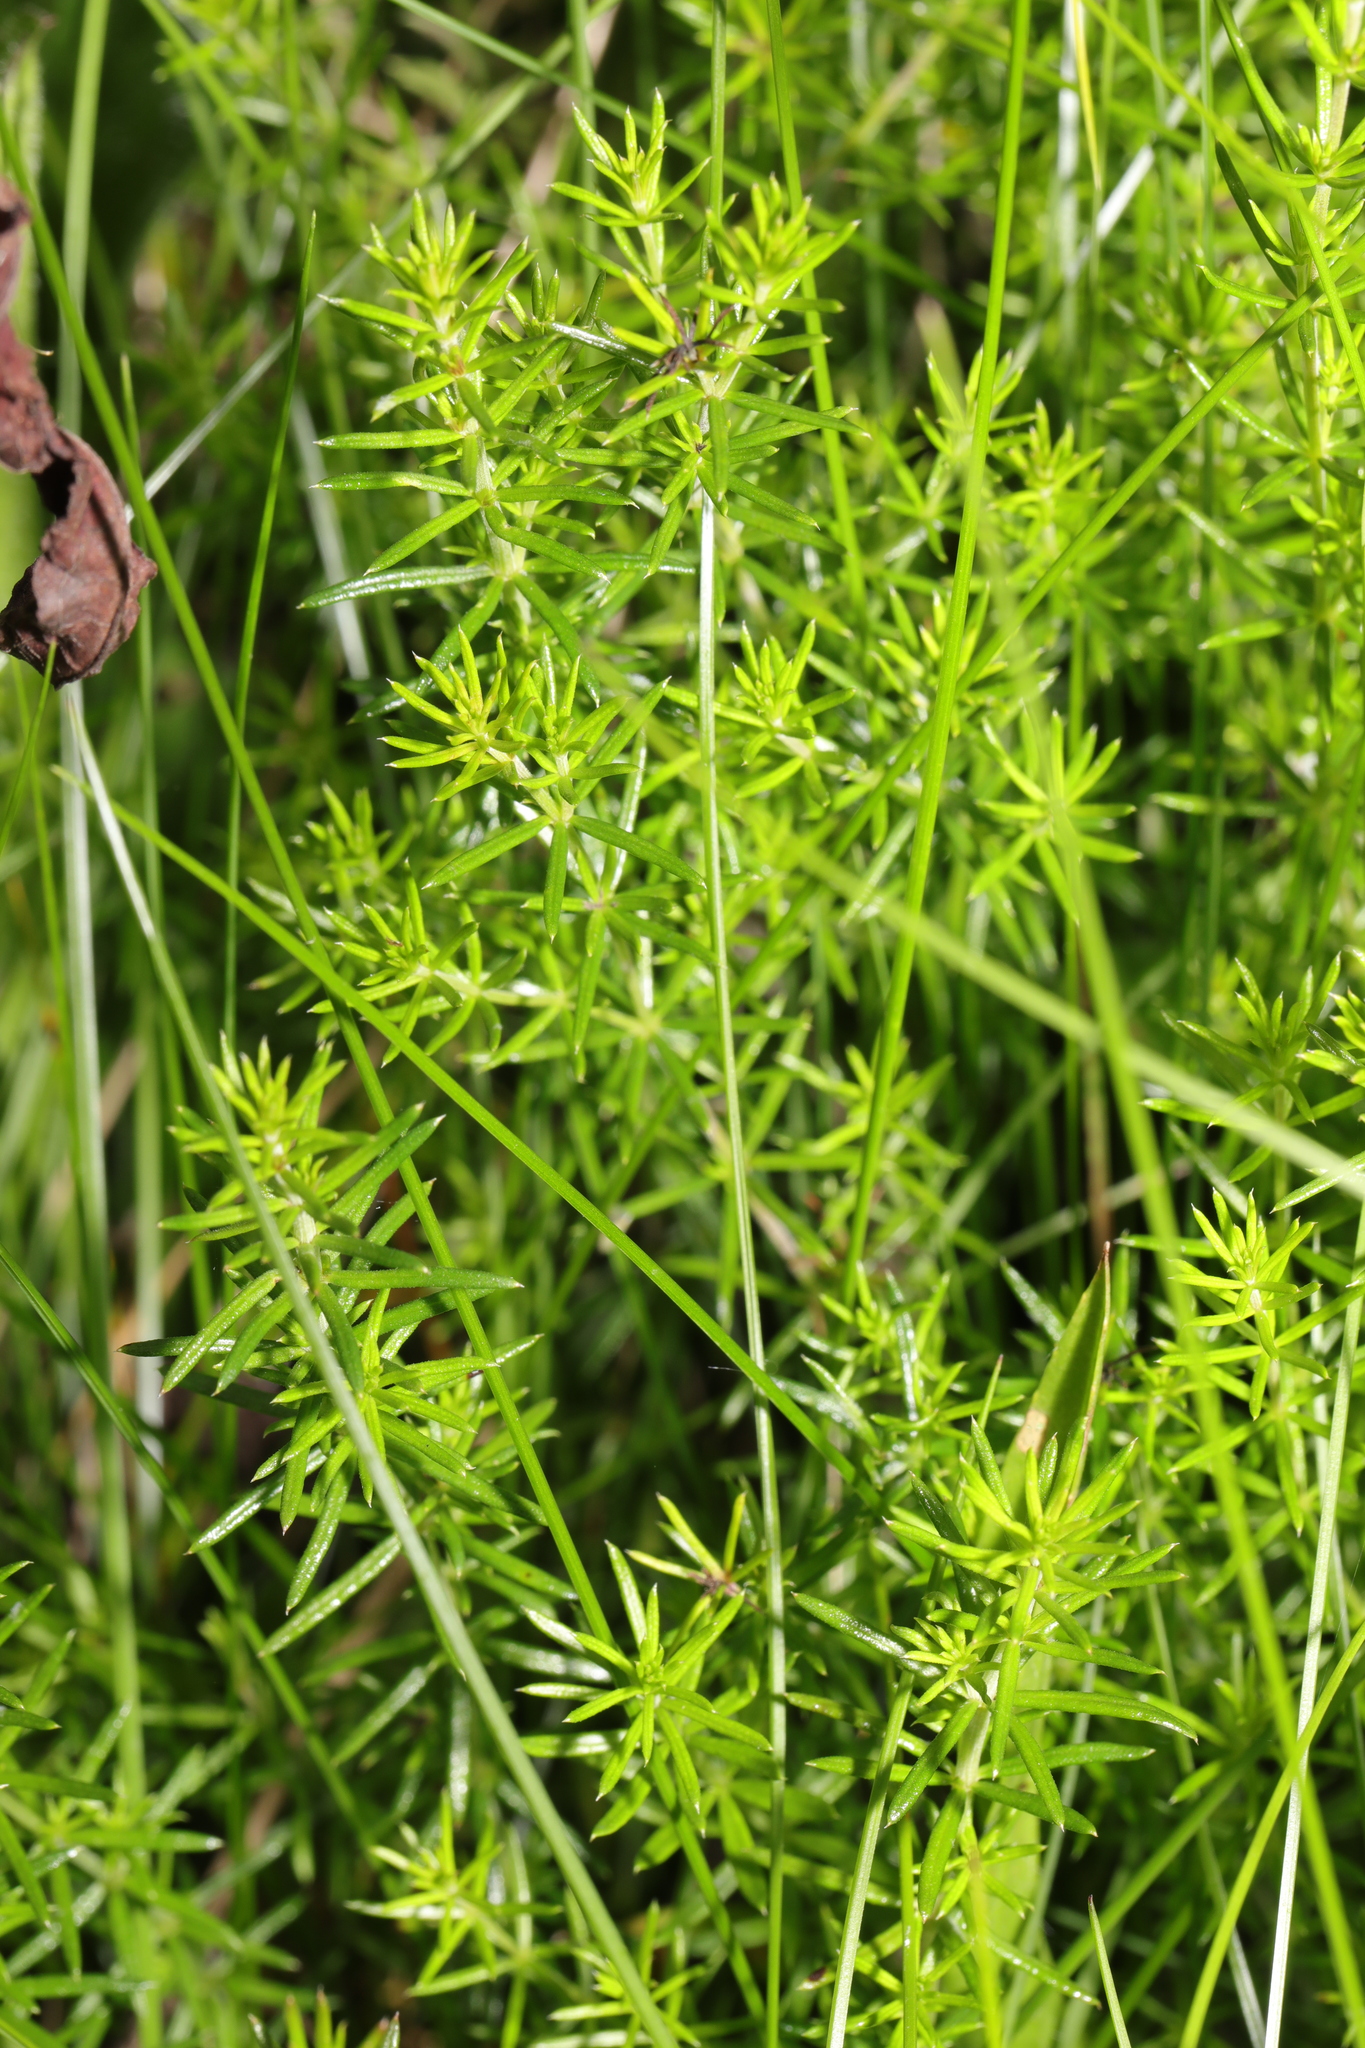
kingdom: Plantae
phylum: Tracheophyta
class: Magnoliopsida
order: Gentianales
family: Rubiaceae
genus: Galium
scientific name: Galium verum
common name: Lady's bedstraw
